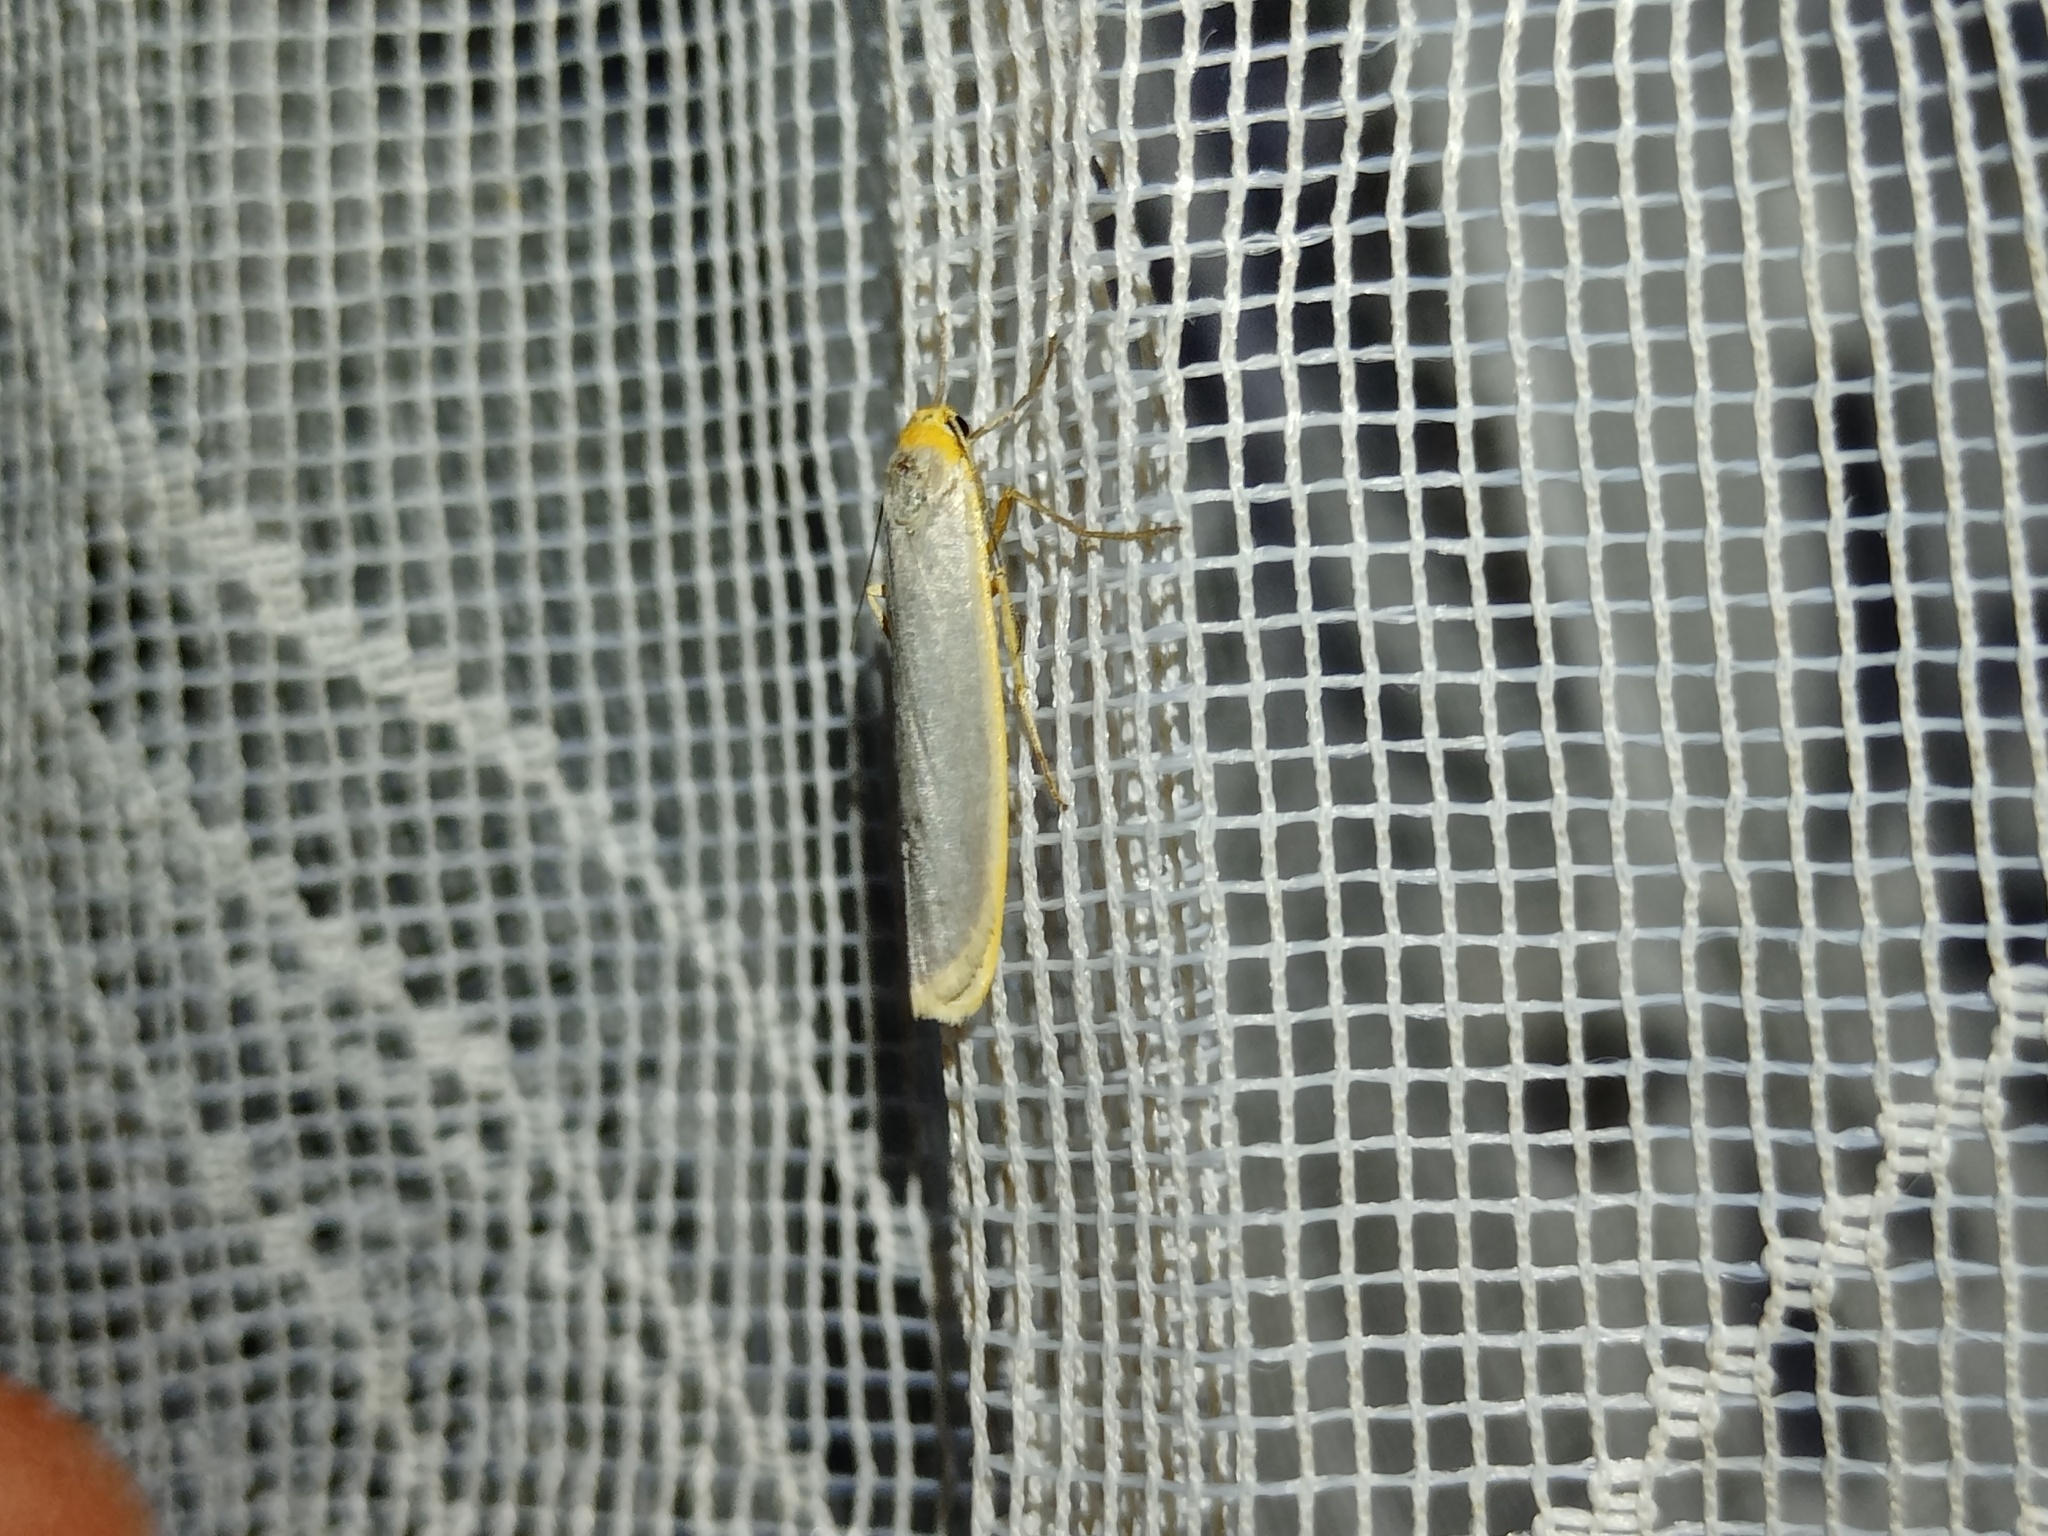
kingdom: Animalia
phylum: Arthropoda
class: Insecta
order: Lepidoptera
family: Erebidae
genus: Manulea
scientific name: Manulea complana
